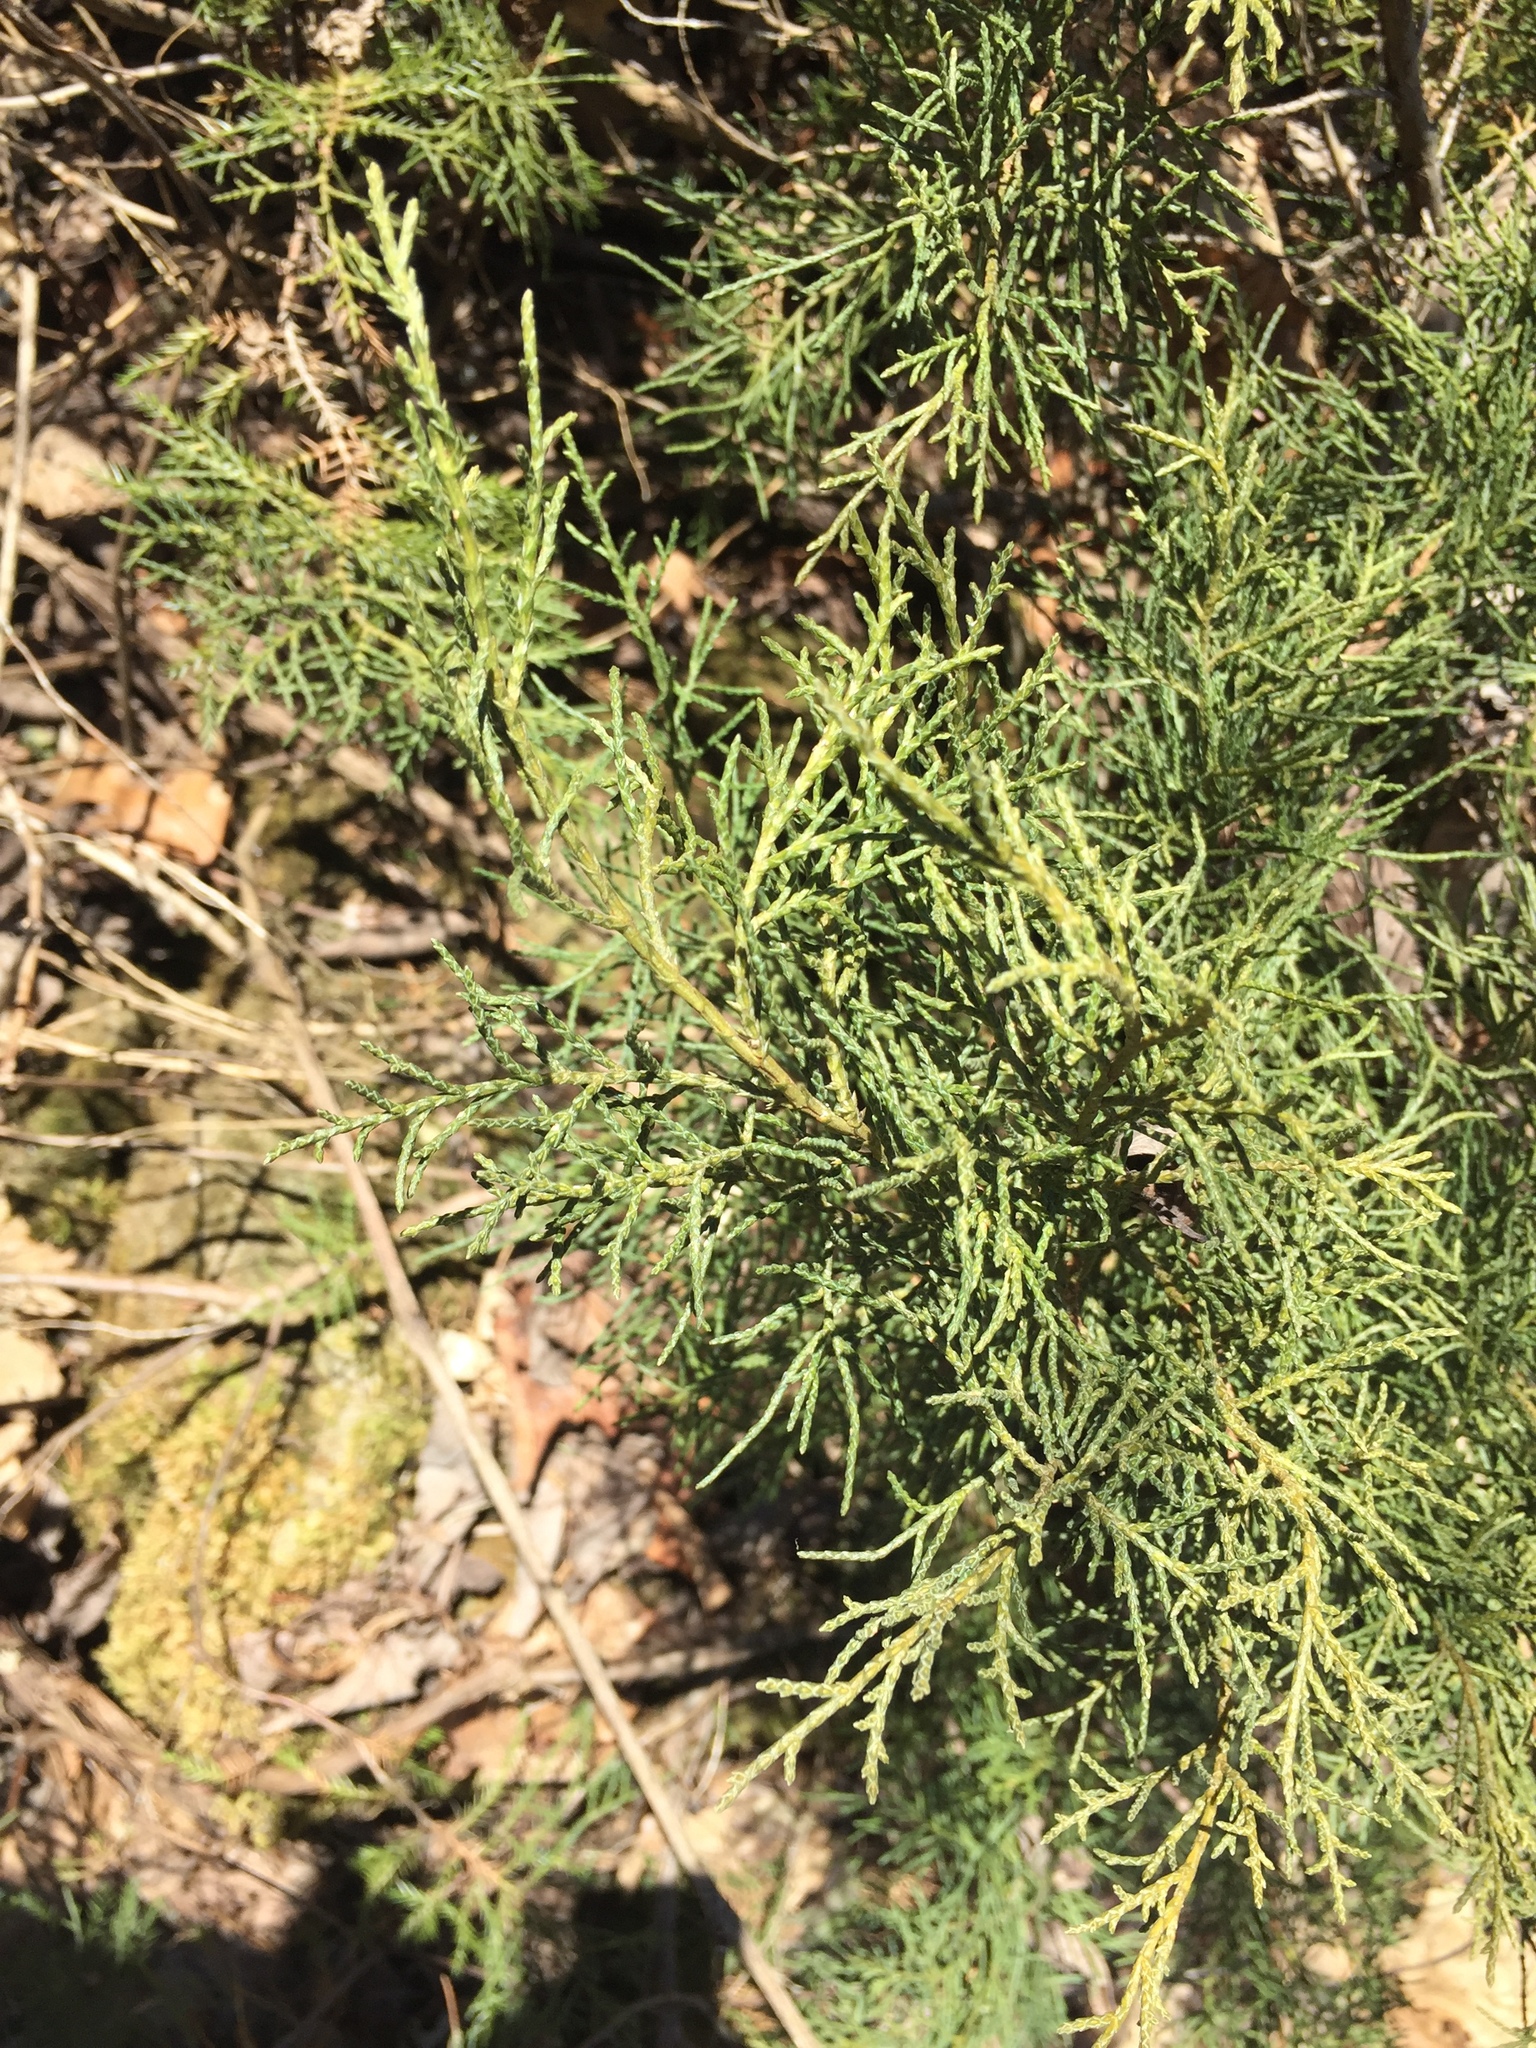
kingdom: Plantae
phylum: Tracheophyta
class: Pinopsida
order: Pinales
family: Cupressaceae
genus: Juniperus
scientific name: Juniperus virginiana
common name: Red juniper
